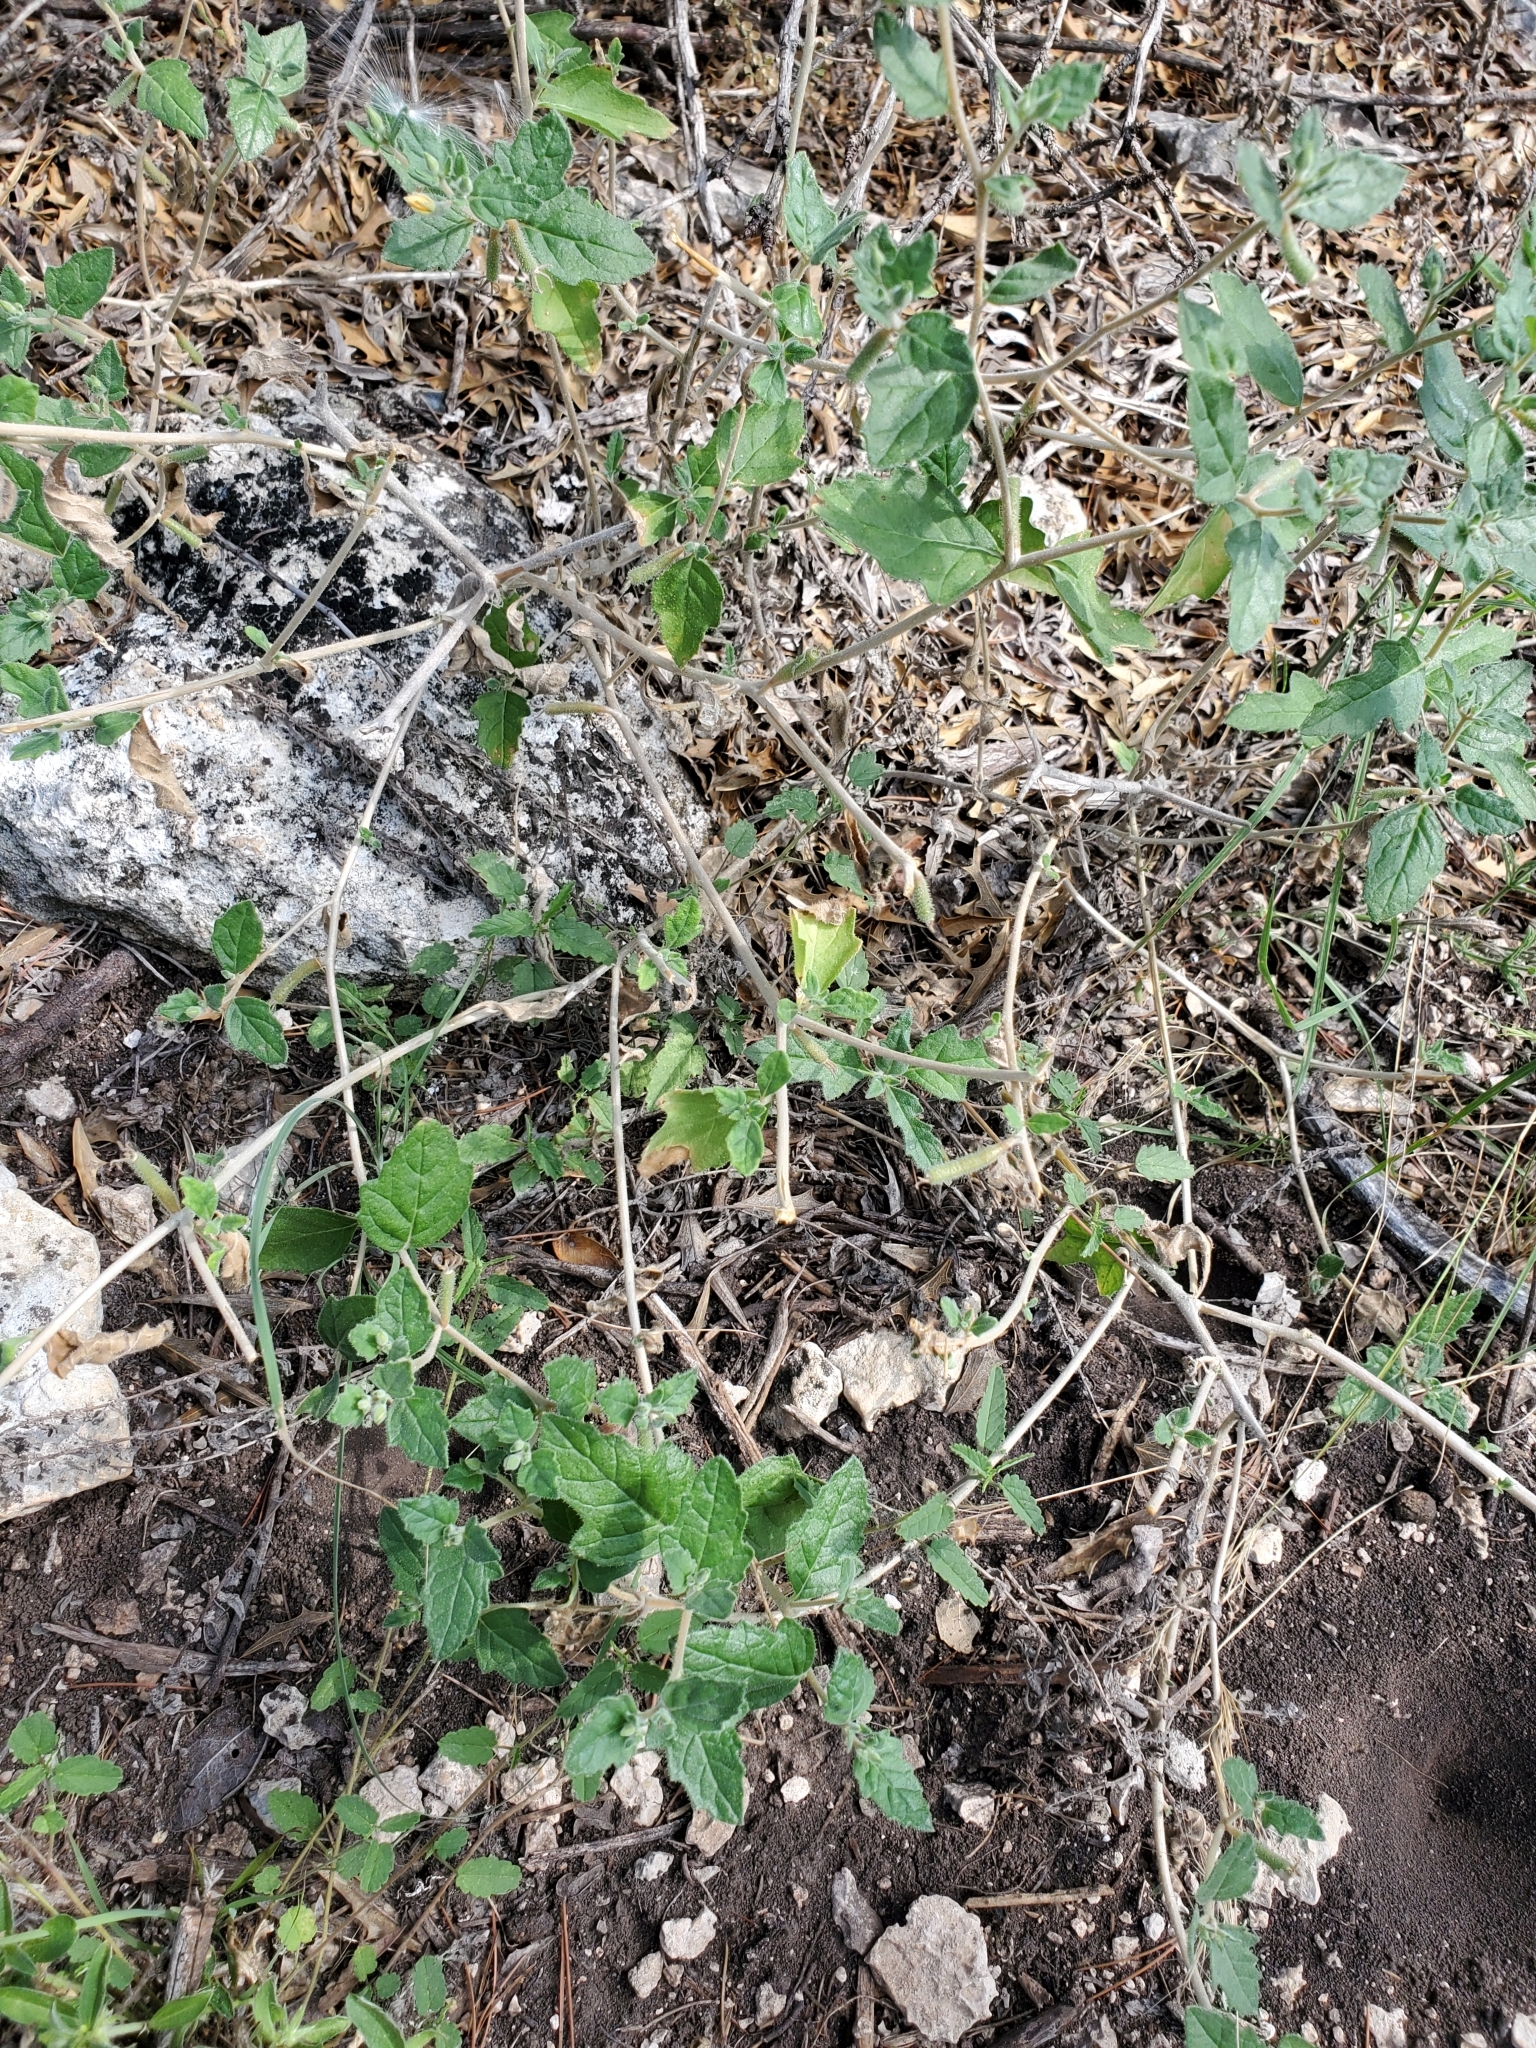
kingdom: Plantae
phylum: Tracheophyta
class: Magnoliopsida
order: Cornales
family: Loasaceae
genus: Mentzelia
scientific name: Mentzelia oligosperma
